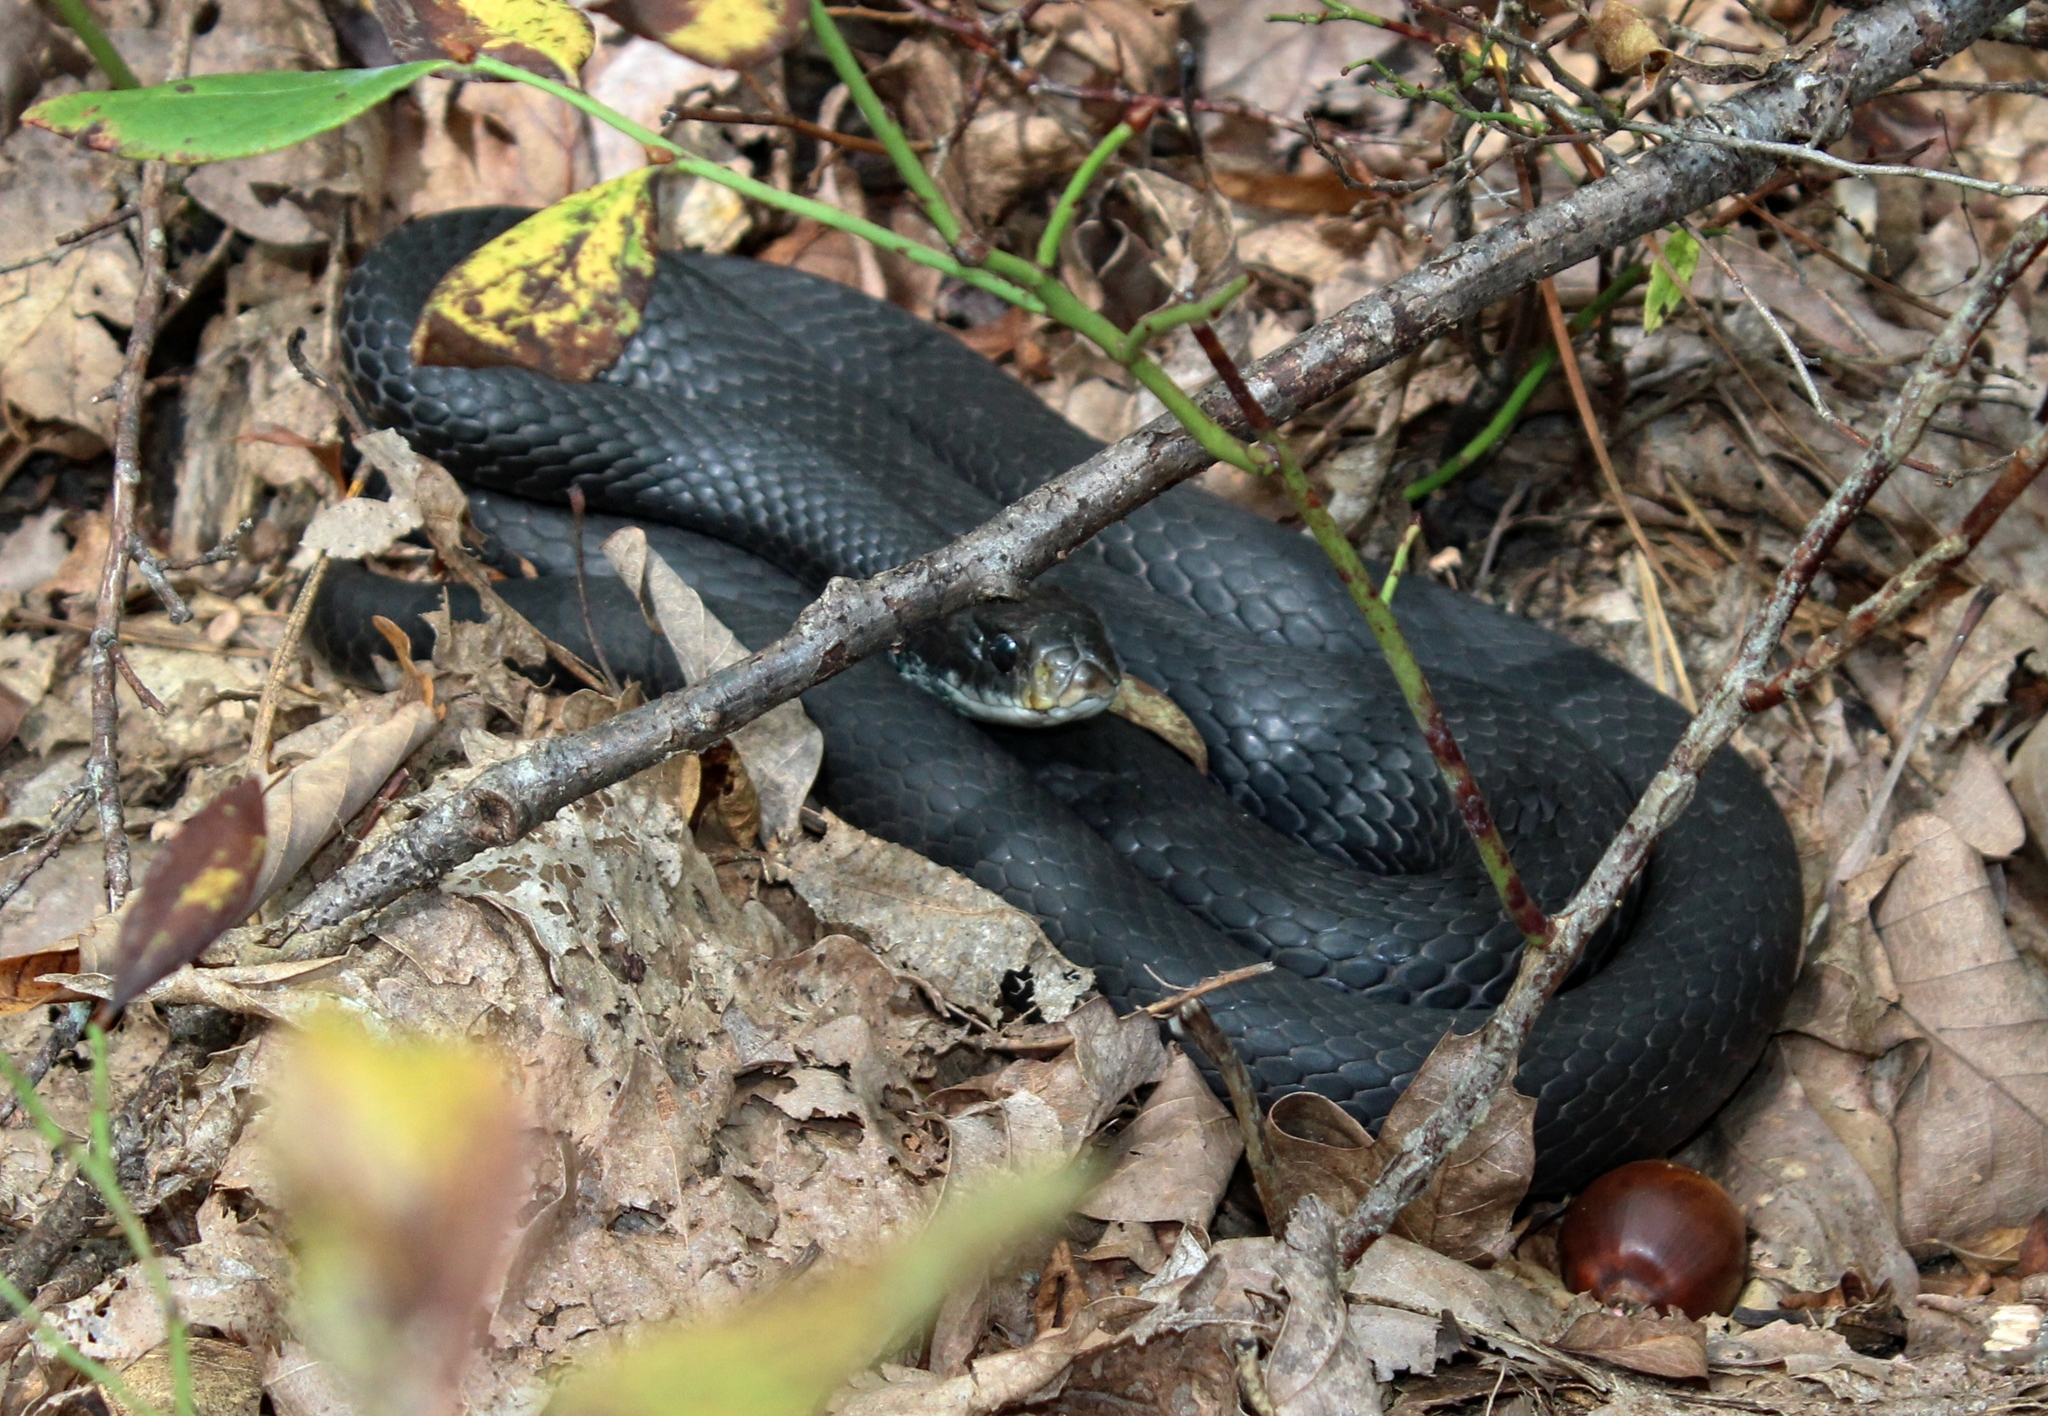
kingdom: Animalia
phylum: Chordata
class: Squamata
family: Colubridae
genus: Coluber
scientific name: Coluber constrictor
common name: Eastern racer
